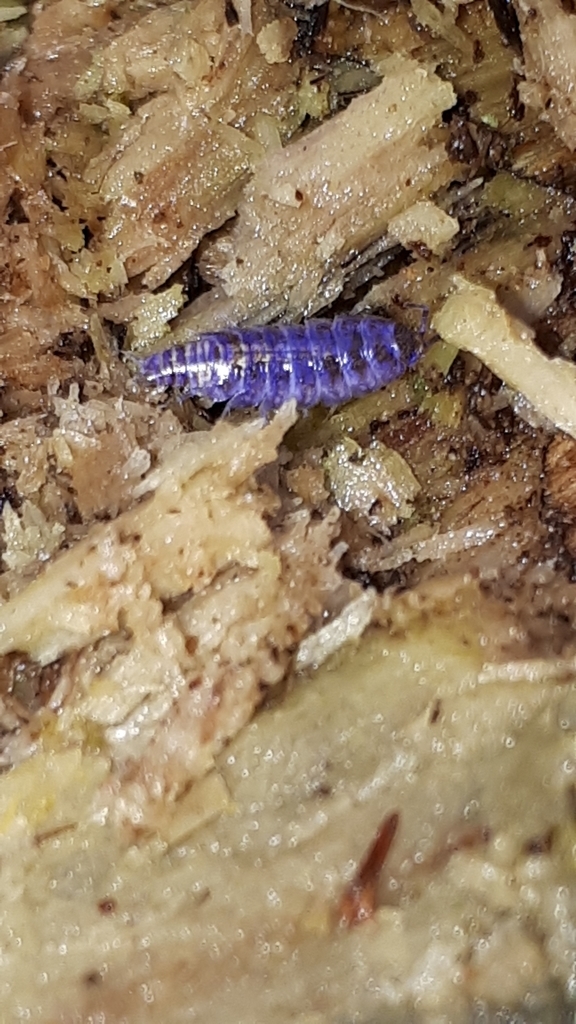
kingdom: Animalia
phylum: Arthropoda
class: Malacostraca
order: Isopoda
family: Trichoniscidae
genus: Hyloniscus
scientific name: Hyloniscus riparius
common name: Isopod
